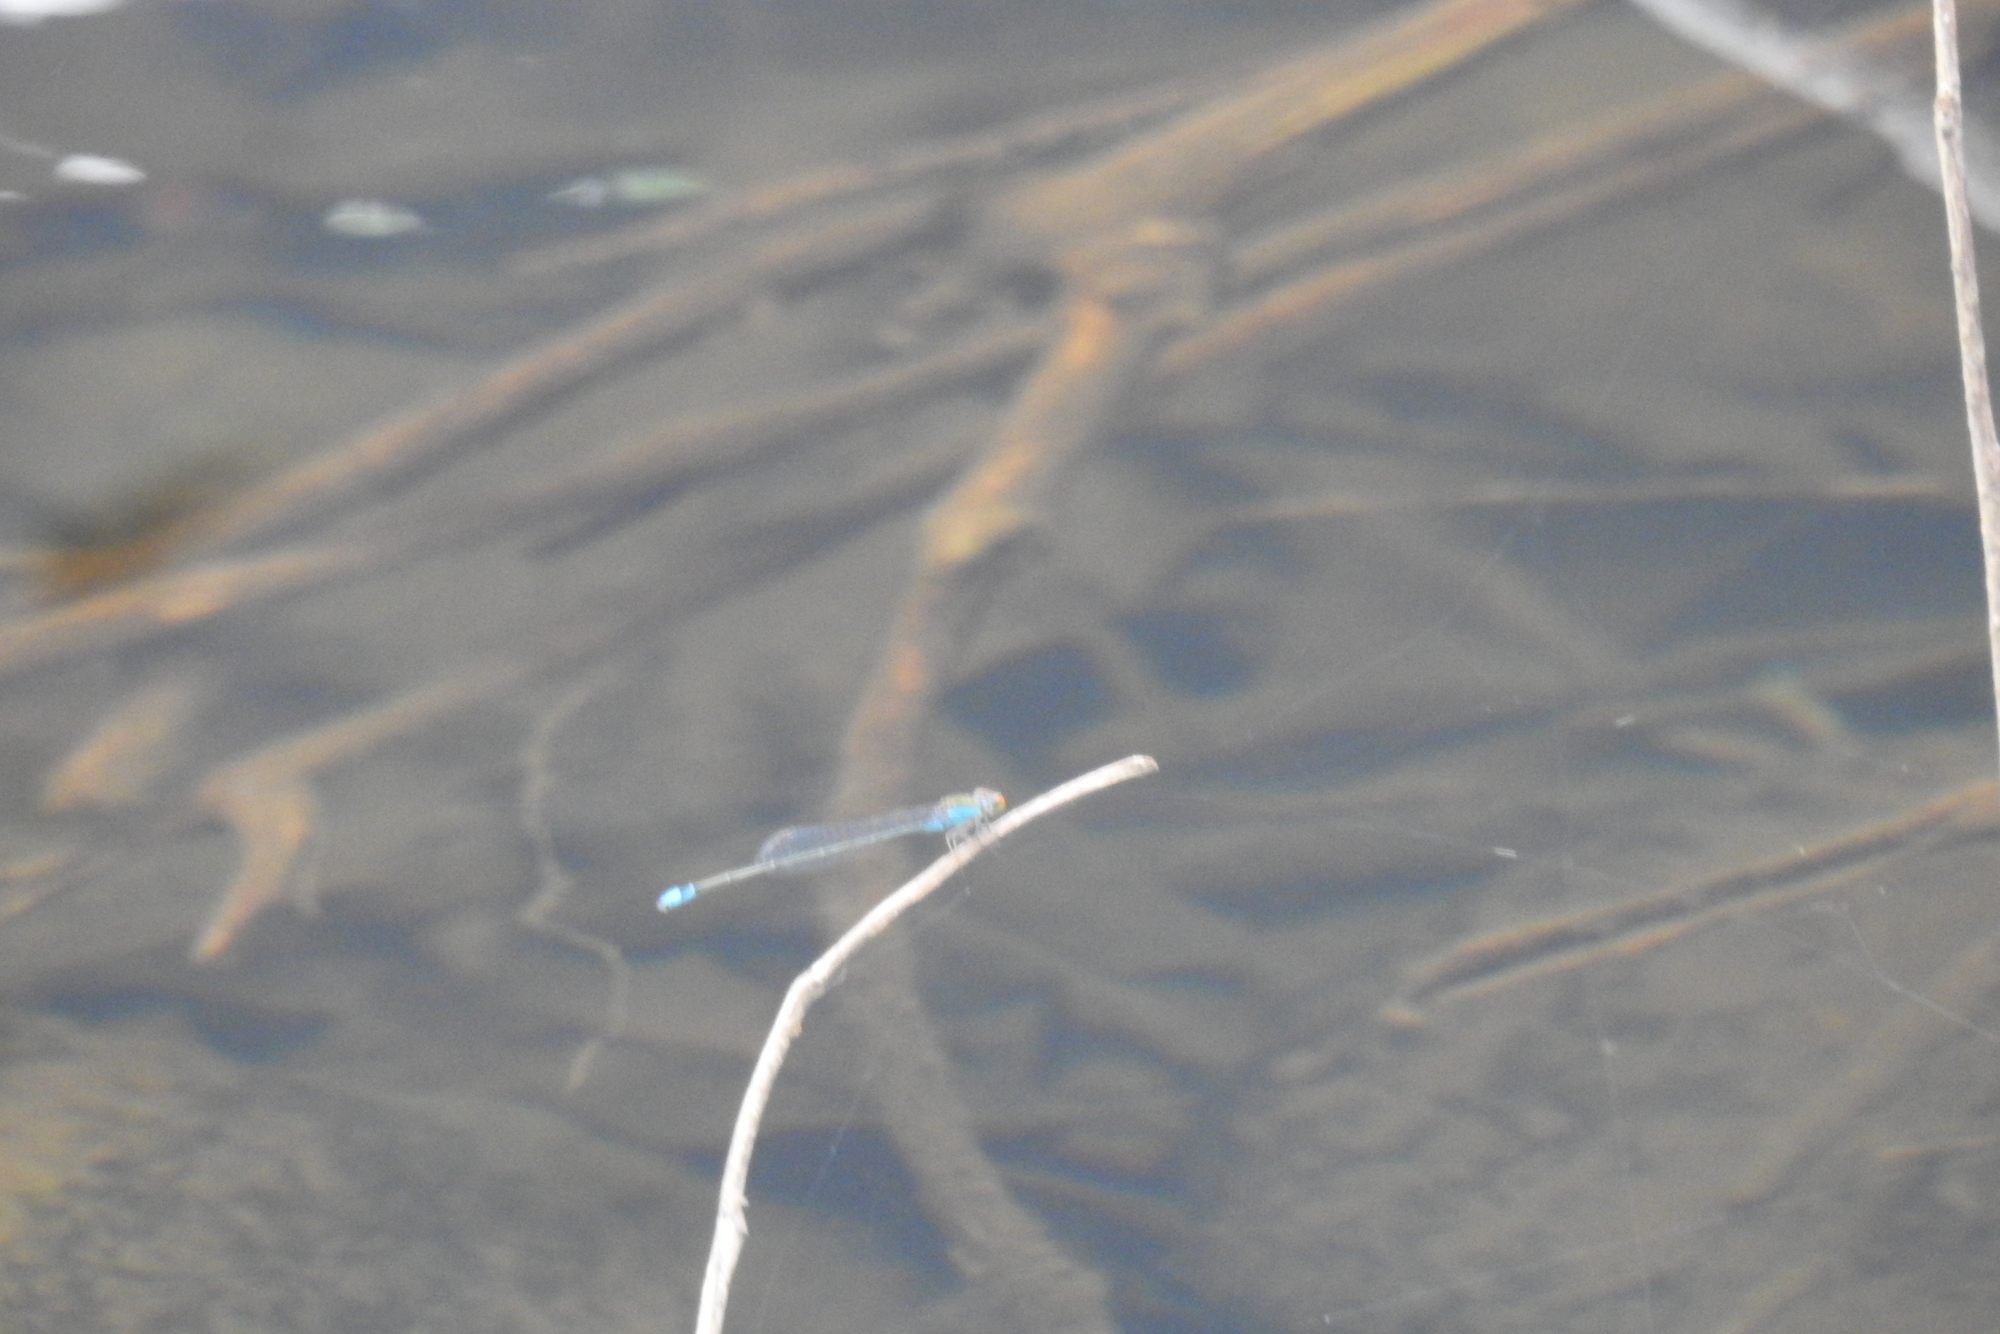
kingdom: Animalia
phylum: Arthropoda
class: Insecta
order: Odonata
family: Coenagrionidae
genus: Pseudagrion
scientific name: Pseudagrion rubriceps
